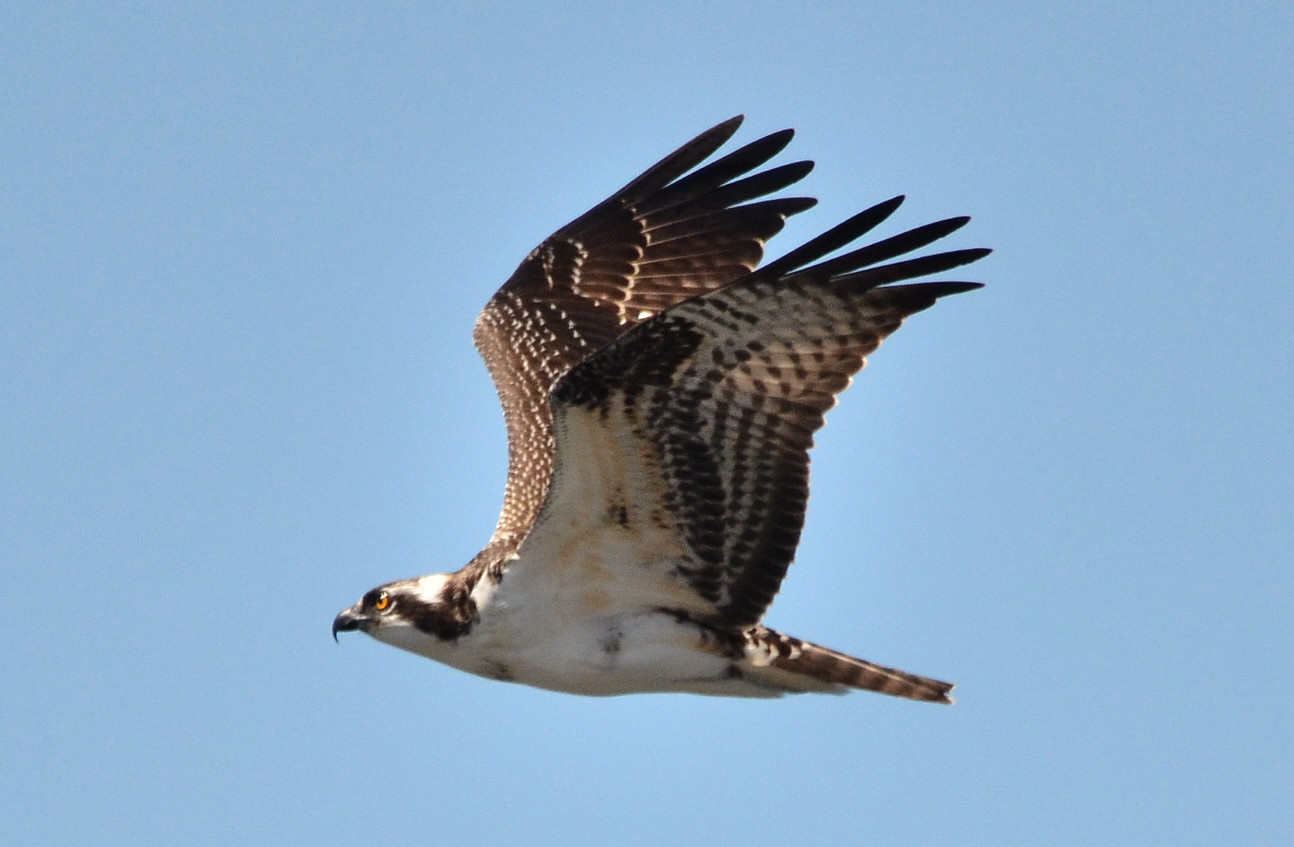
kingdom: Animalia
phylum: Chordata
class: Aves
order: Accipitriformes
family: Pandionidae
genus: Pandion
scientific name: Pandion haliaetus
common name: Osprey
